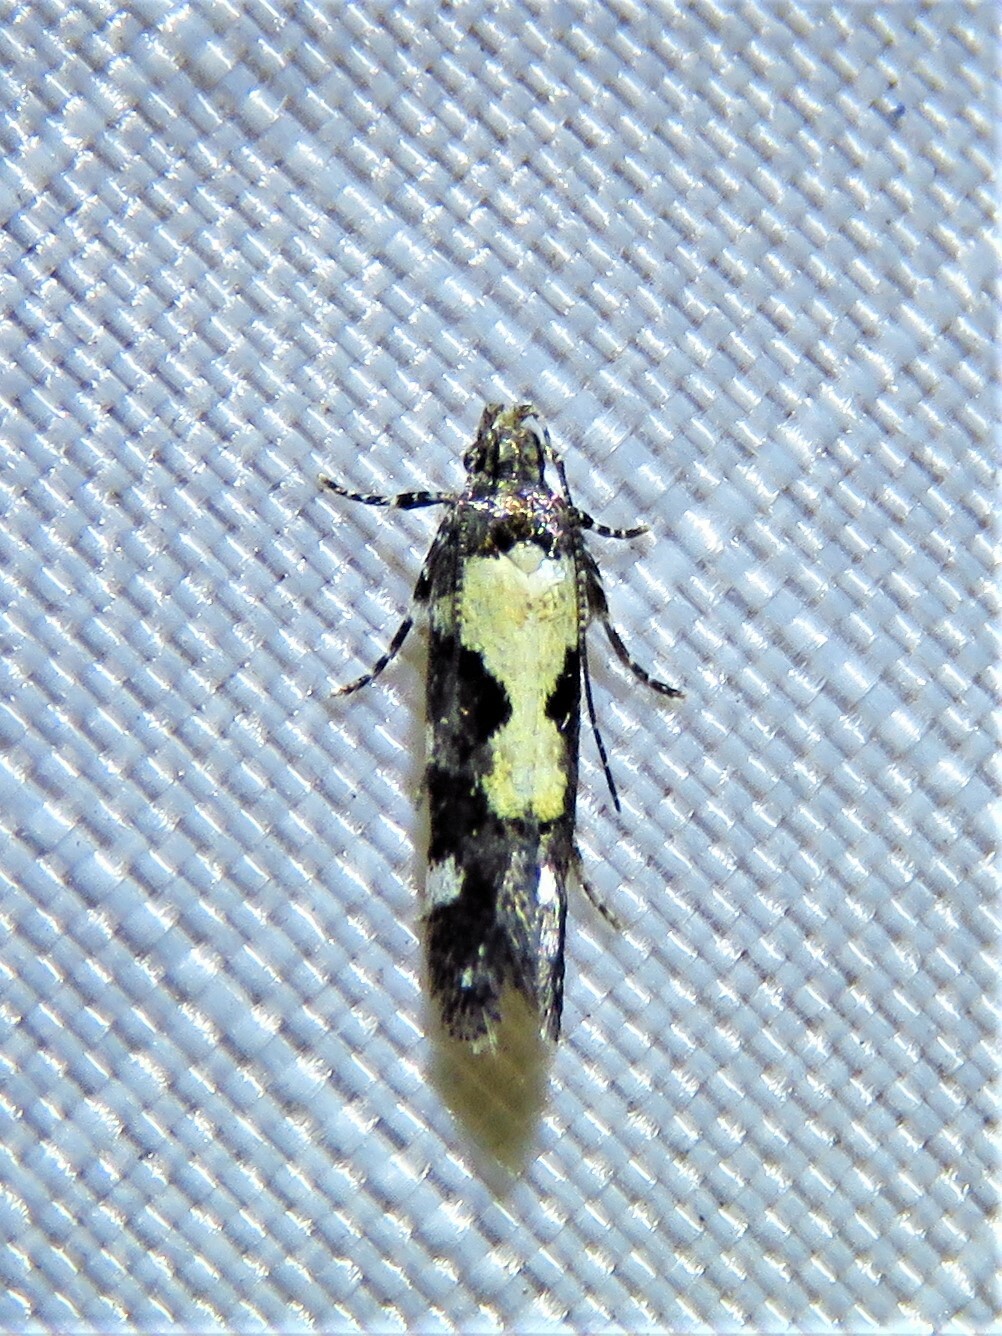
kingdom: Animalia
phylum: Arthropoda
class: Insecta
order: Lepidoptera
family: Gelechiidae
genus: Stegasta
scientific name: Stegasta bosqueella
